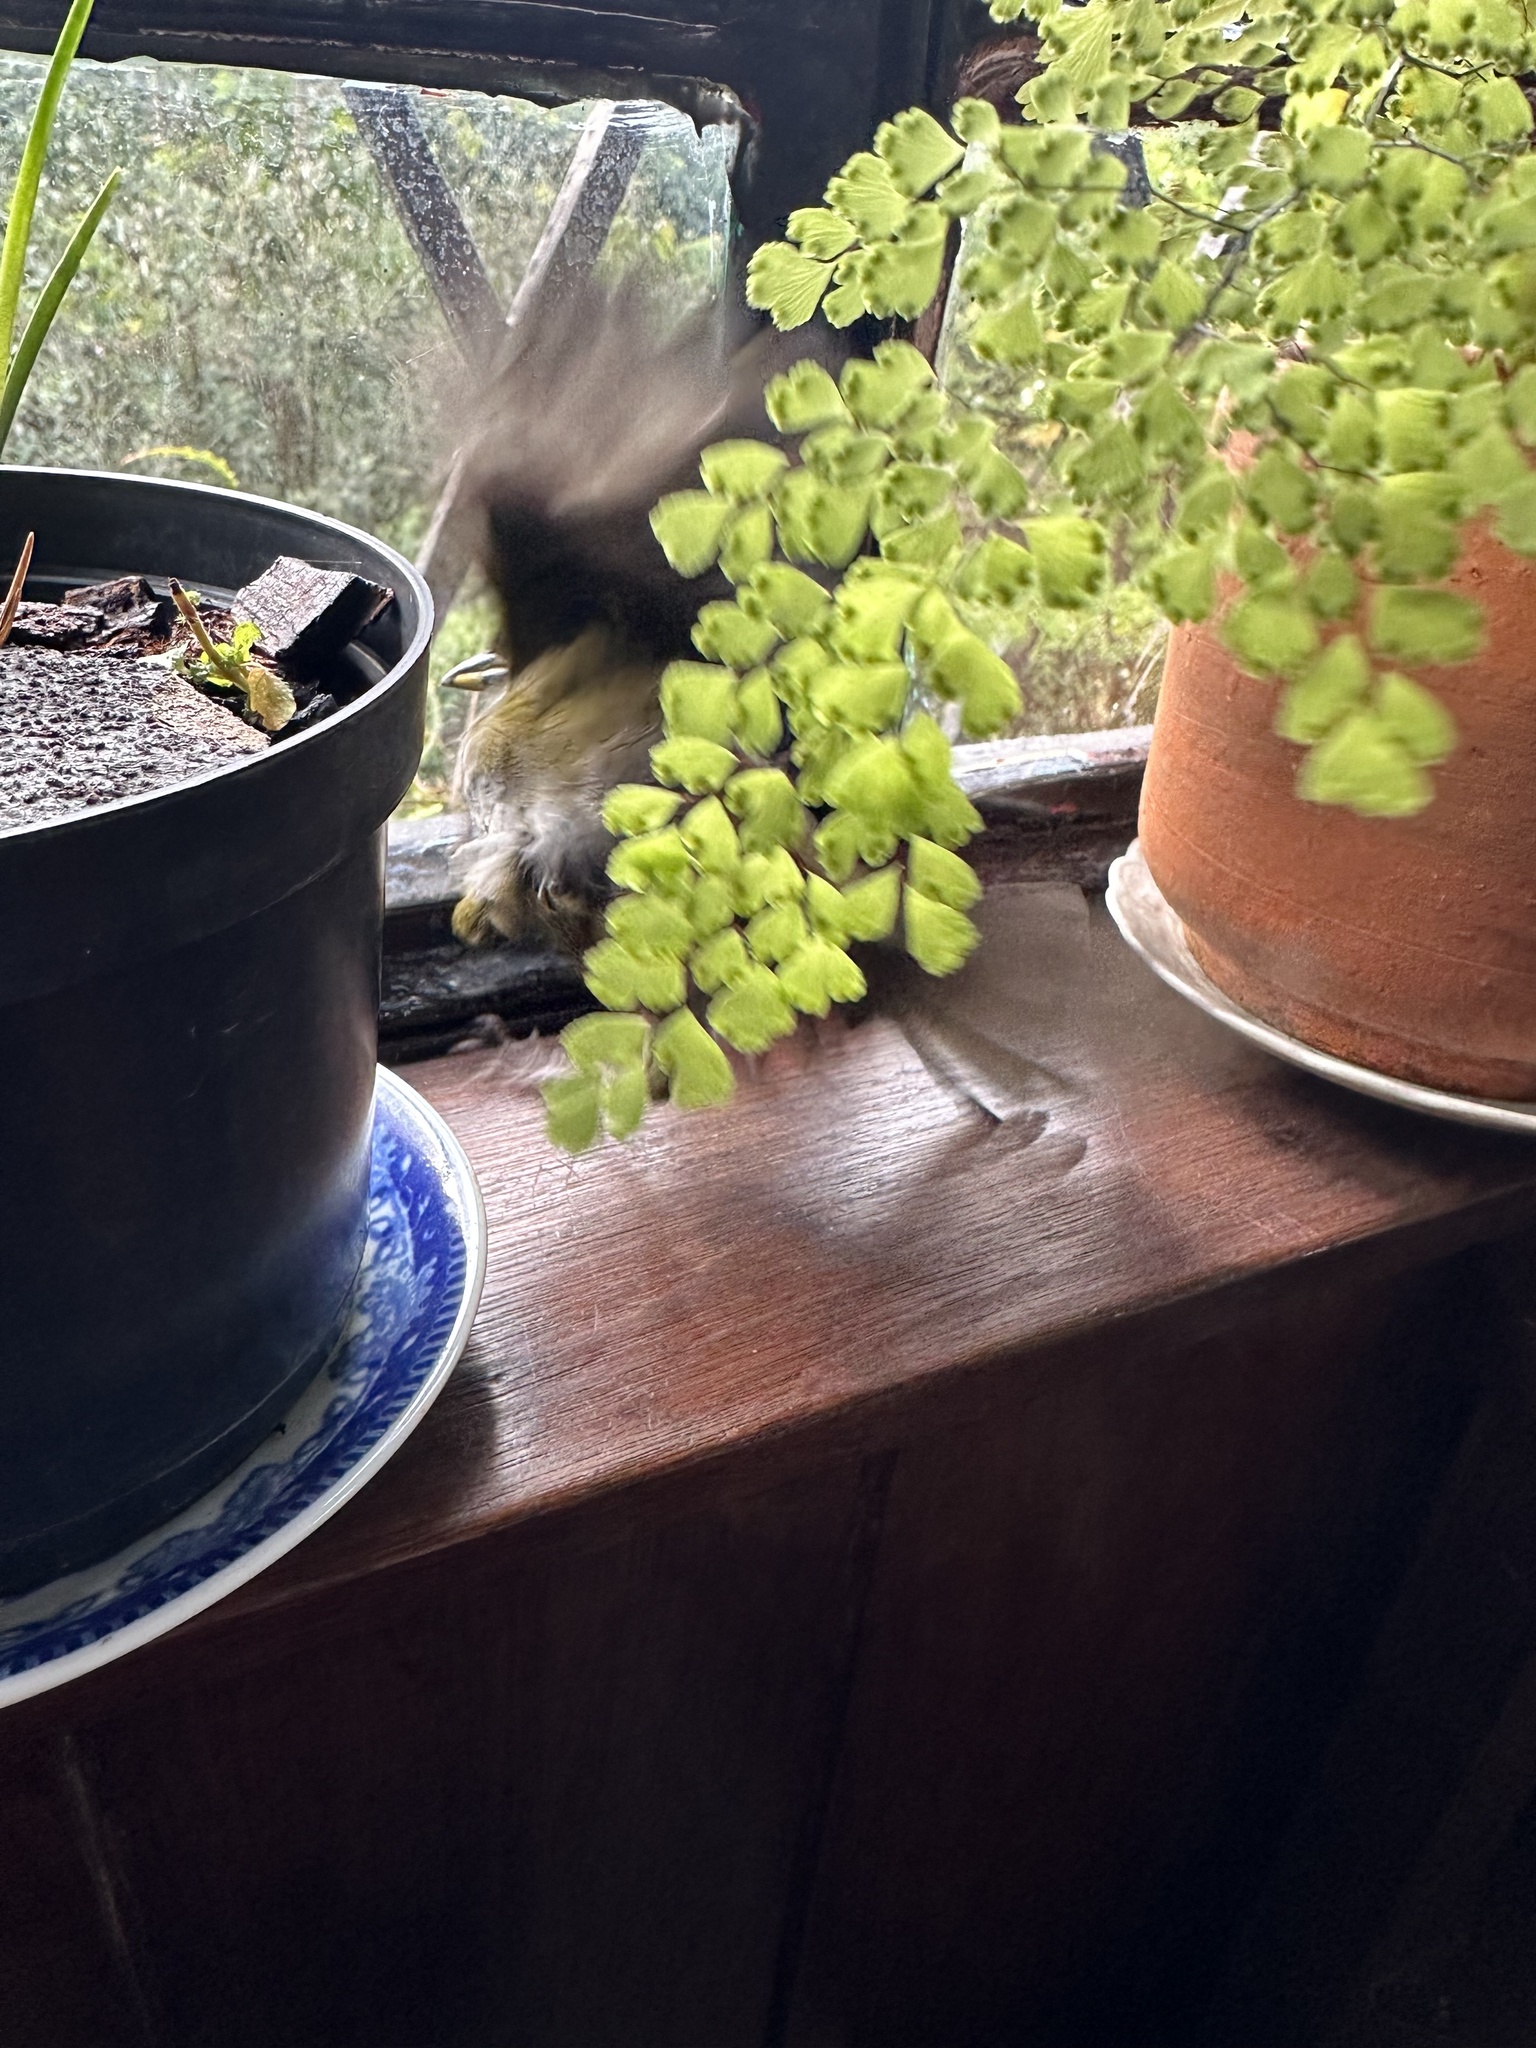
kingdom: Animalia
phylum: Chordata
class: Aves
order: Passeriformes
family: Passerellidae
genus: Arremon
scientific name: Arremon assimilis
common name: Grey-browed brushfinch
